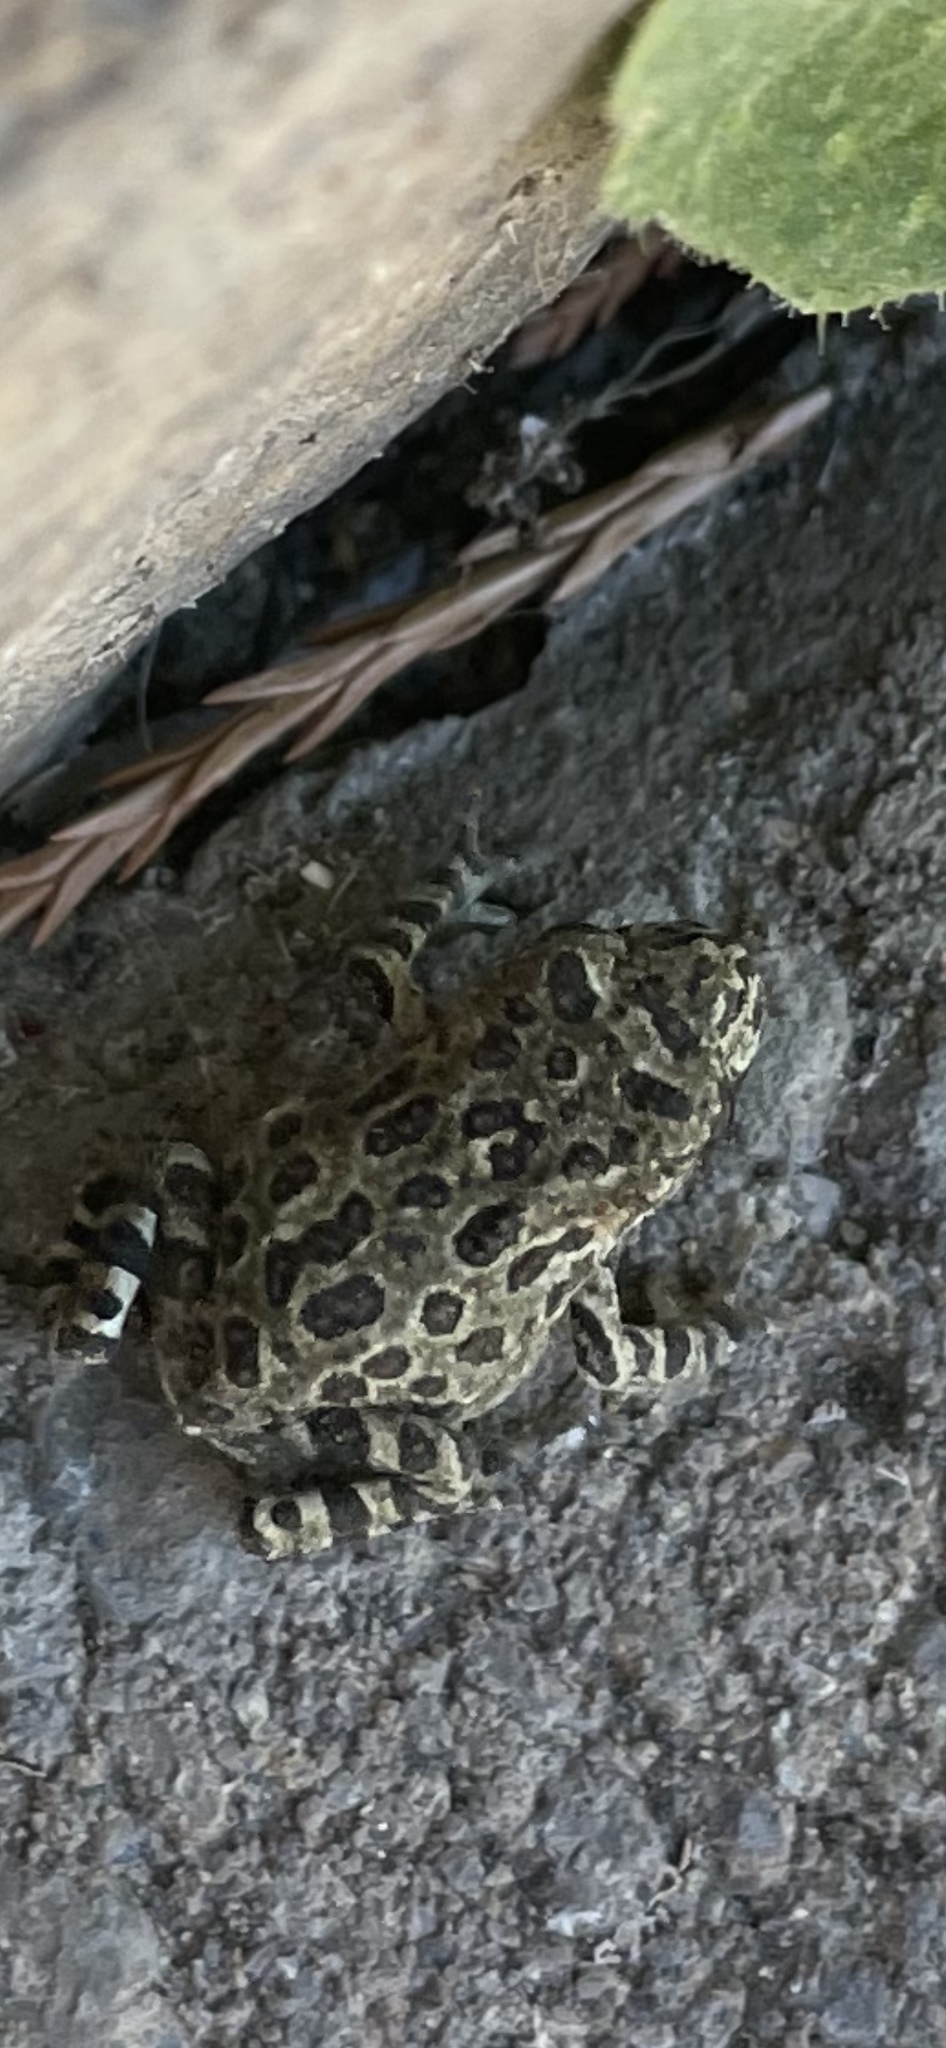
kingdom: Animalia
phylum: Chordata
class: Amphibia
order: Anura
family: Bufonidae
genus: Anaxyrus
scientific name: Anaxyrus boreas
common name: Western toad
